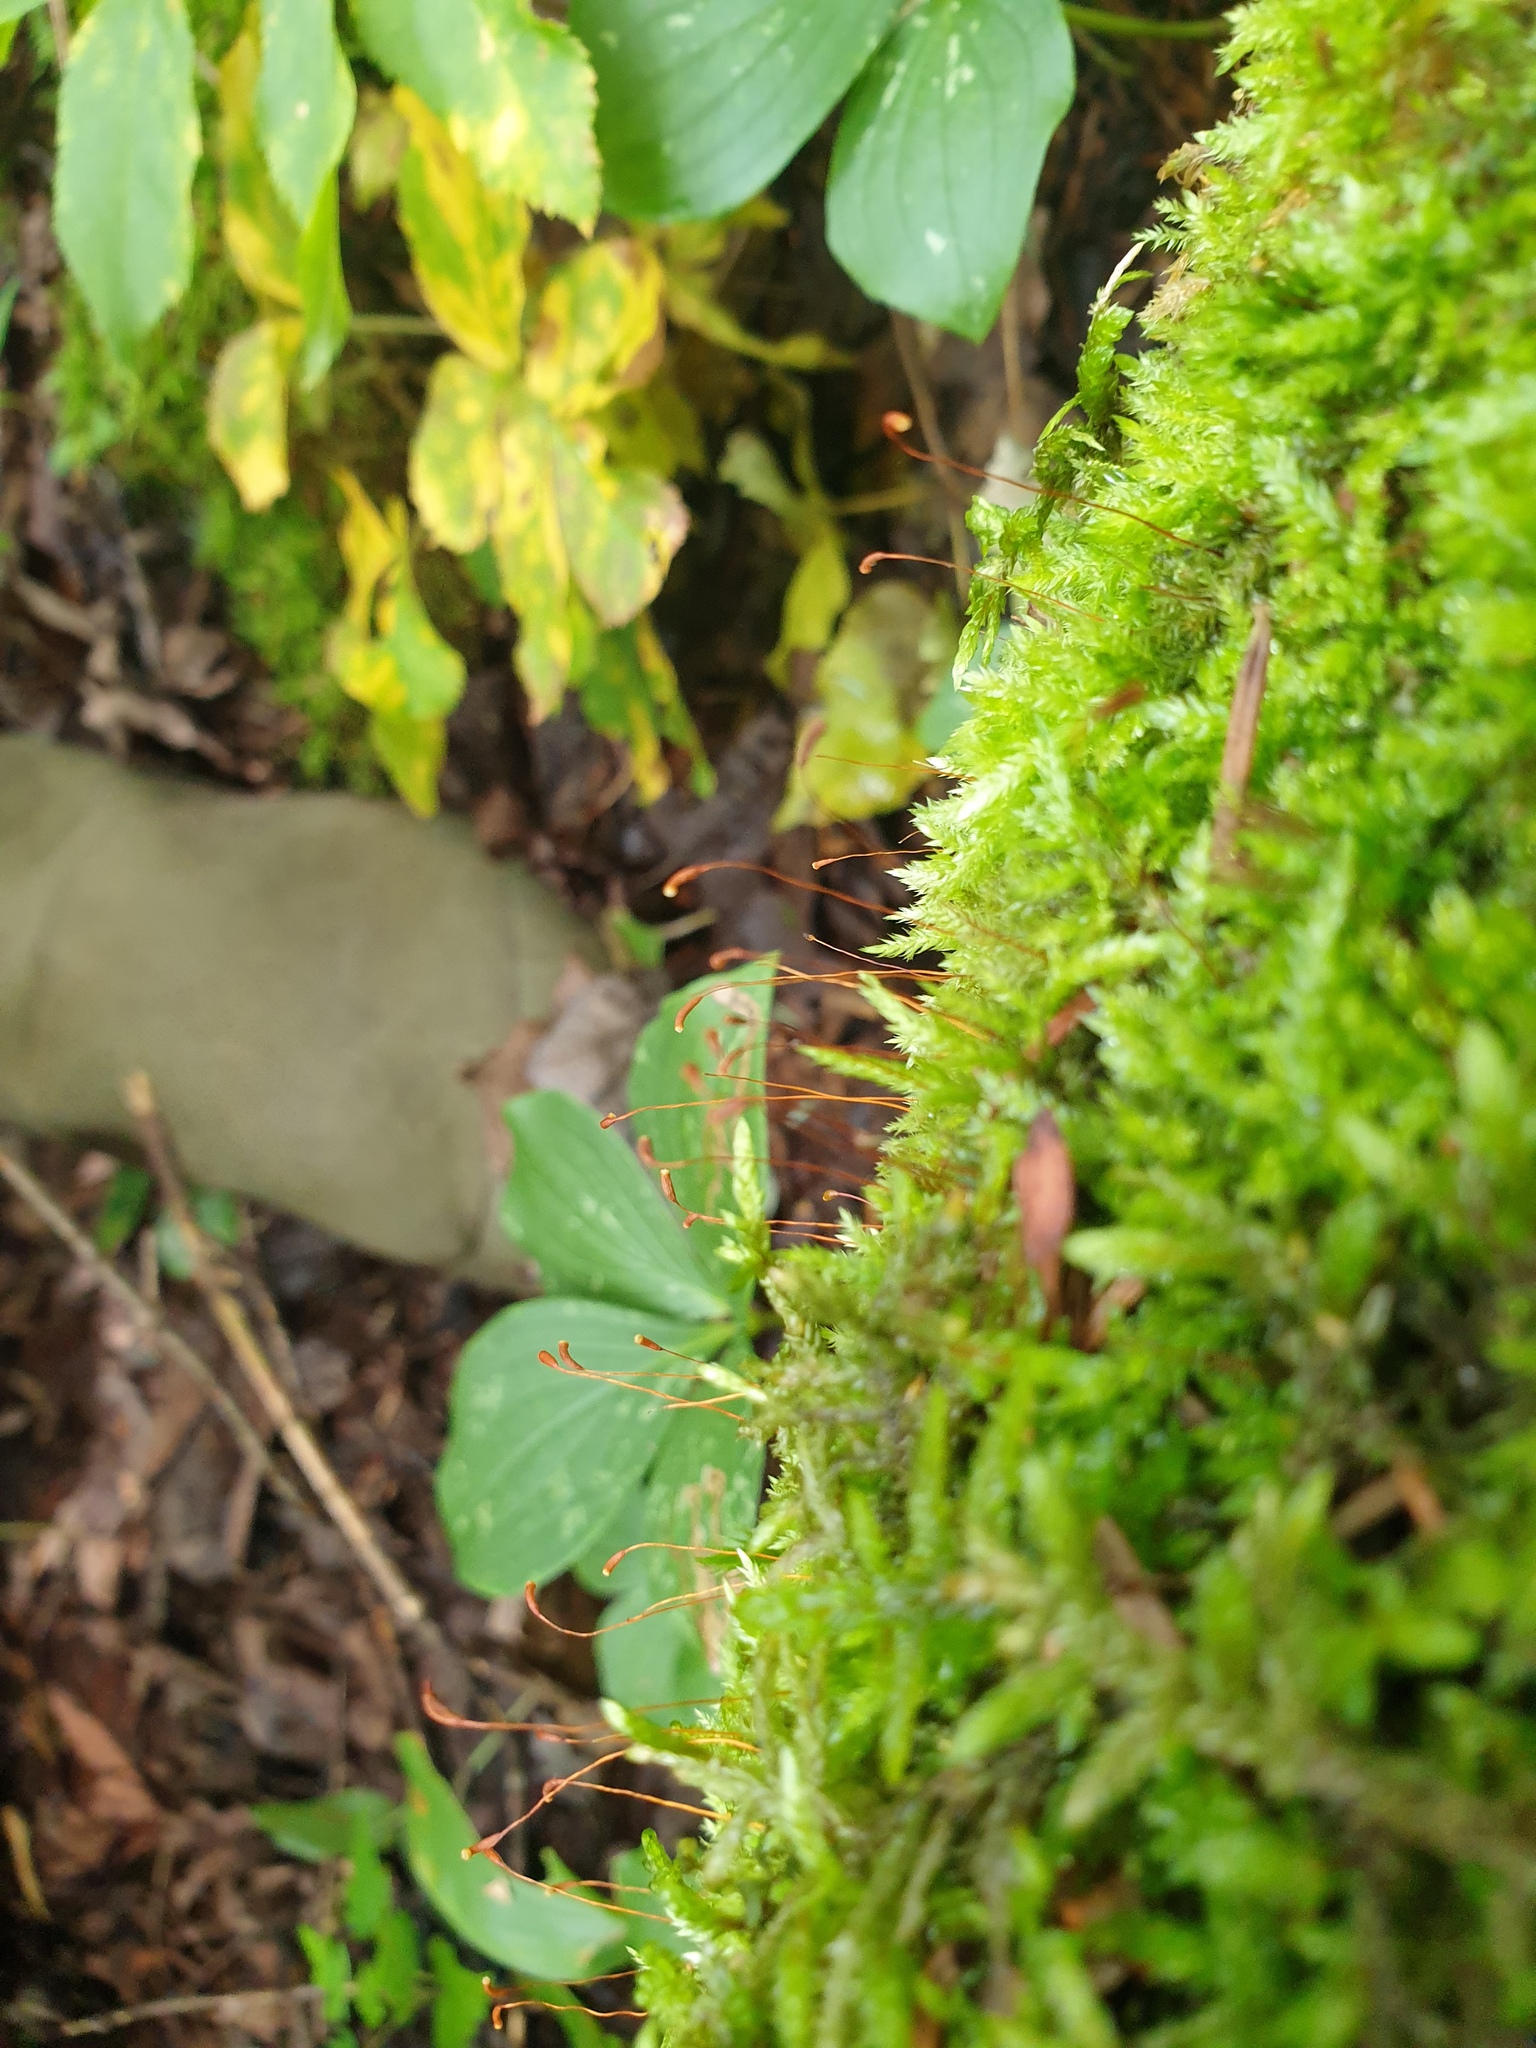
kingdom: Plantae
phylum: Bryophyta
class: Bryopsida
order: Hypnales
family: Callicladiaceae
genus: Callicladium
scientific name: Callicladium haldanianum
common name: Beautiful branch moss
